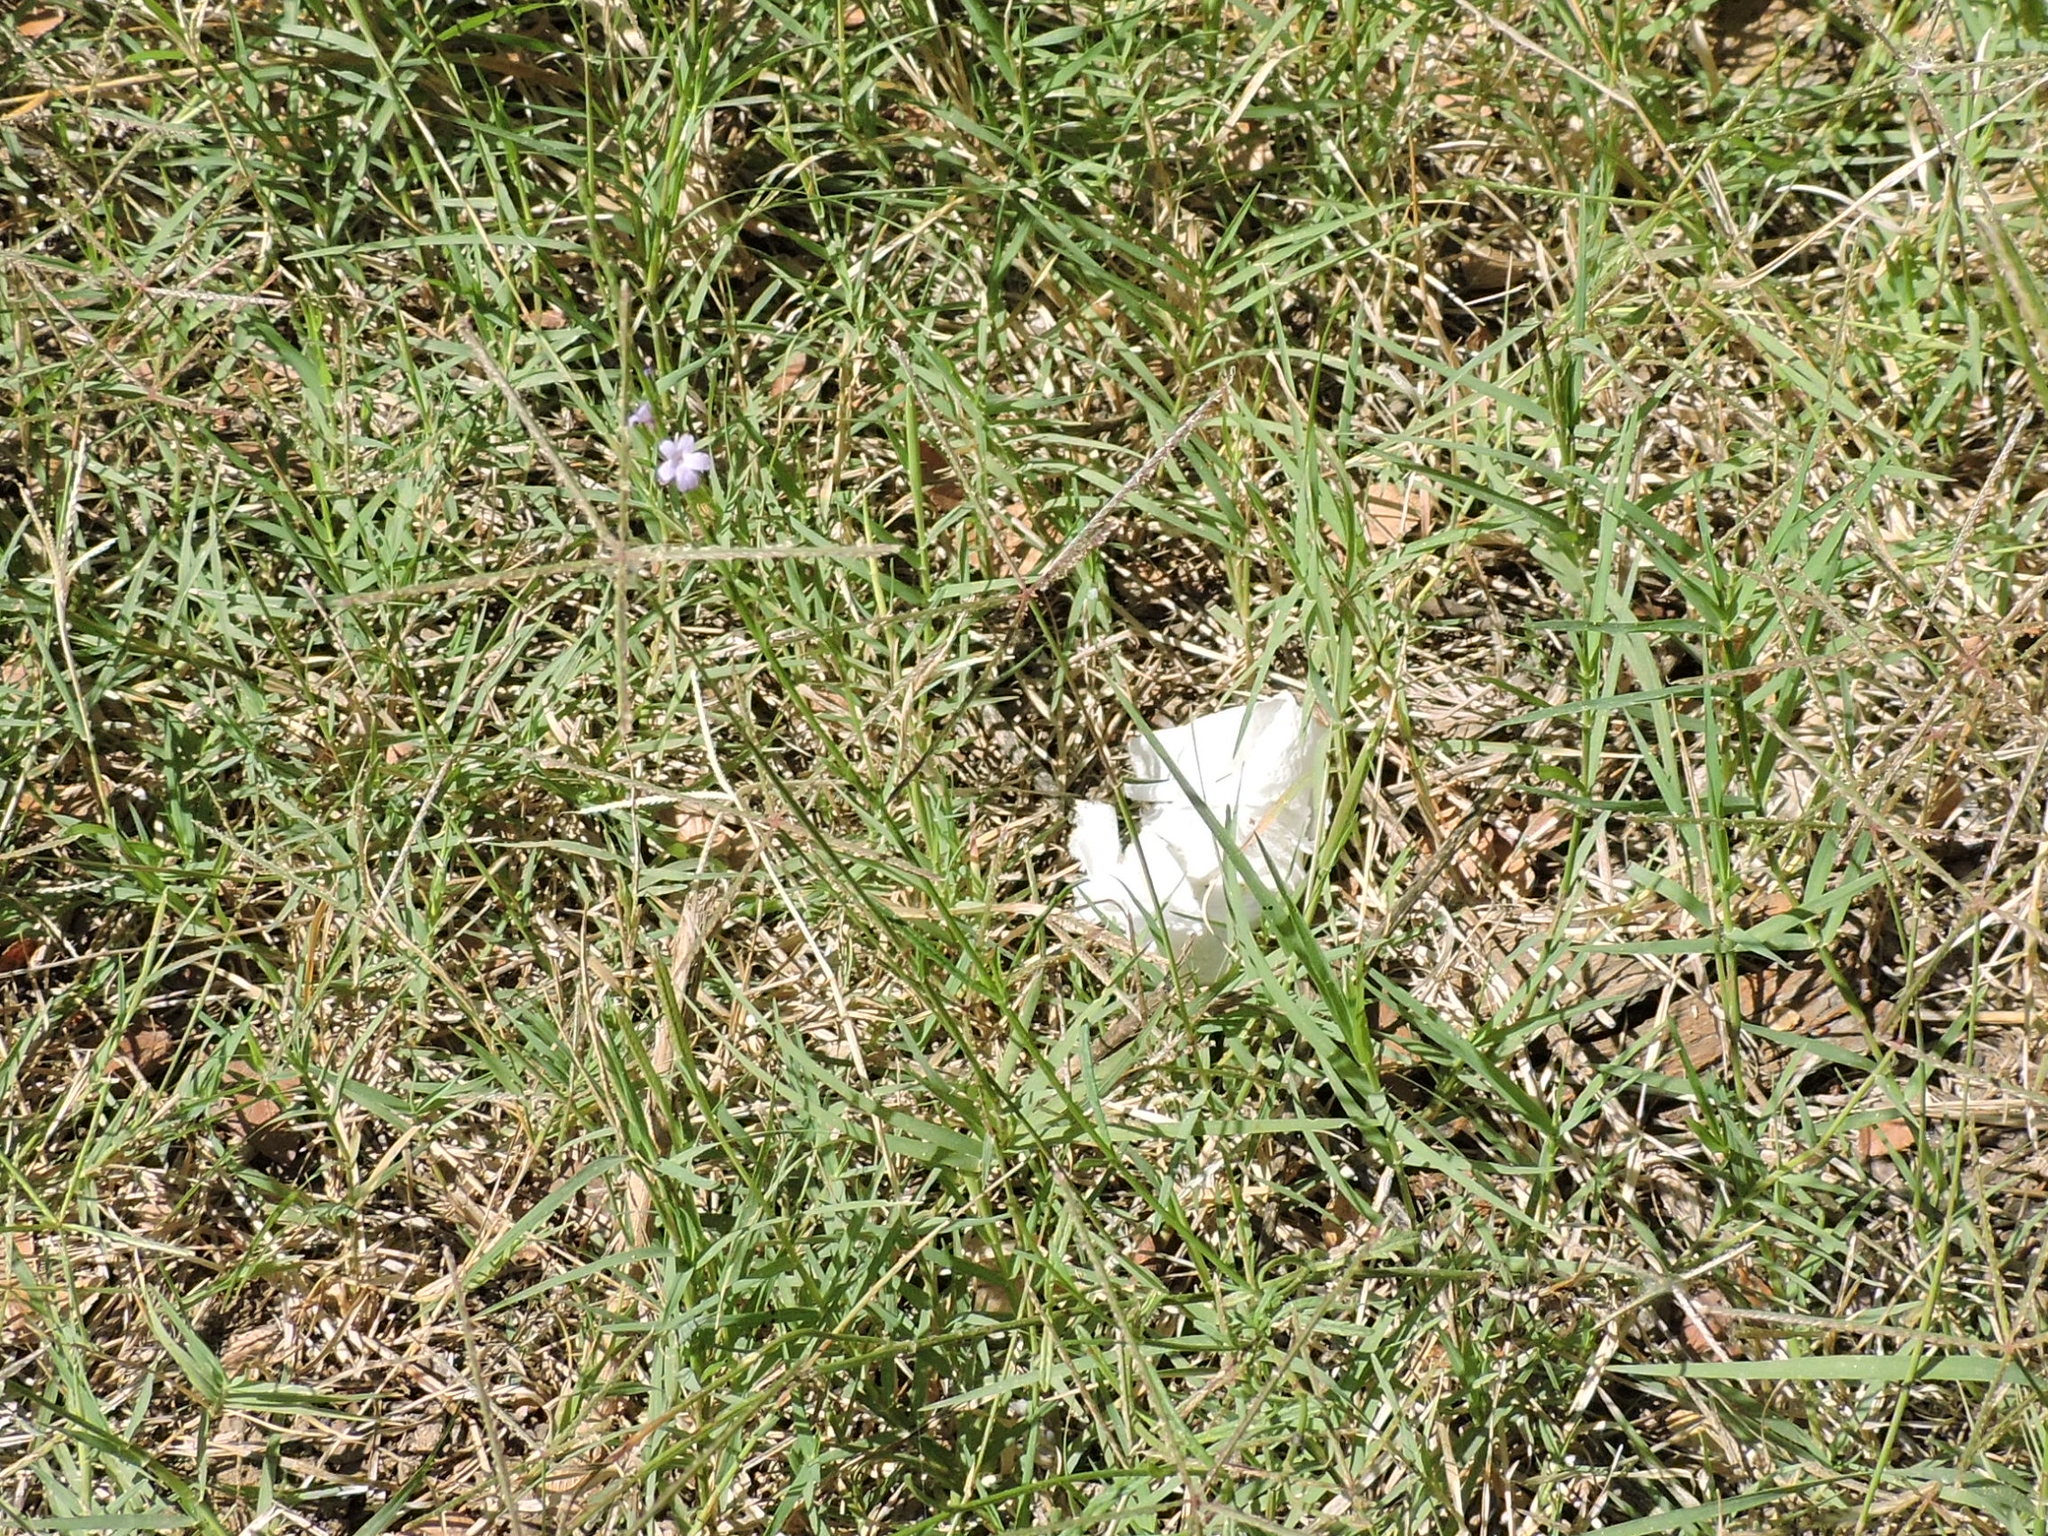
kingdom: Plantae
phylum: Tracheophyta
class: Magnoliopsida
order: Lamiales
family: Verbenaceae
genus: Verbena
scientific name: Verbena halei
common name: Texas vervain
